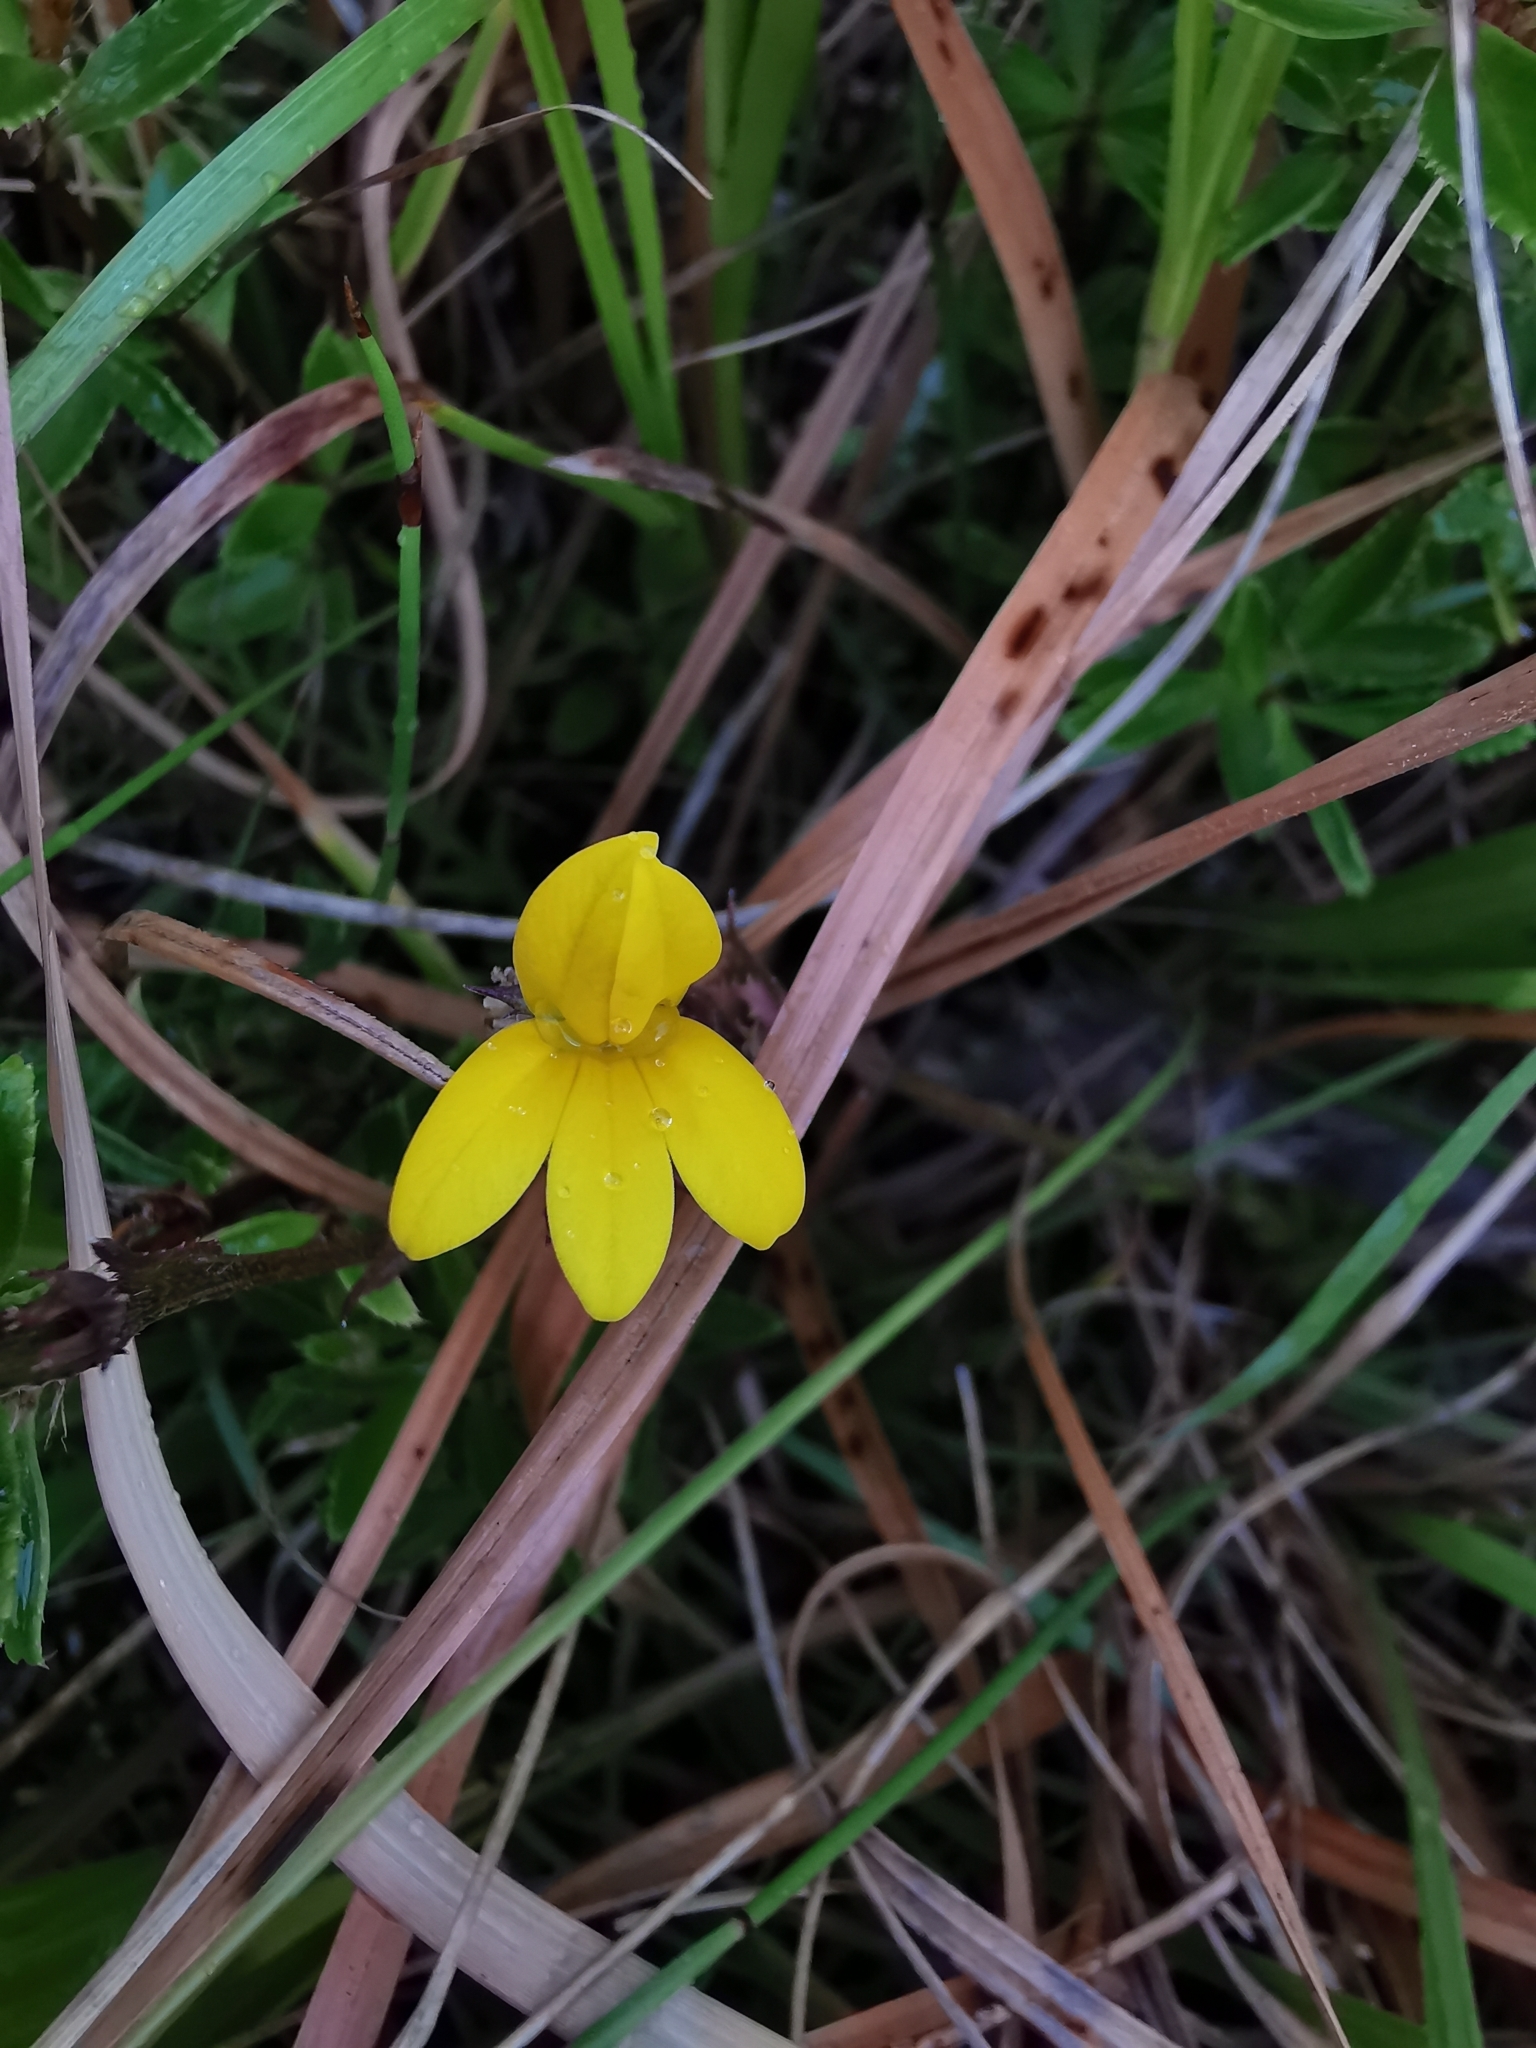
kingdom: Plantae
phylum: Tracheophyta
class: Magnoliopsida
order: Asterales
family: Campanulaceae
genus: Monopsis
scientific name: Monopsis lutea
